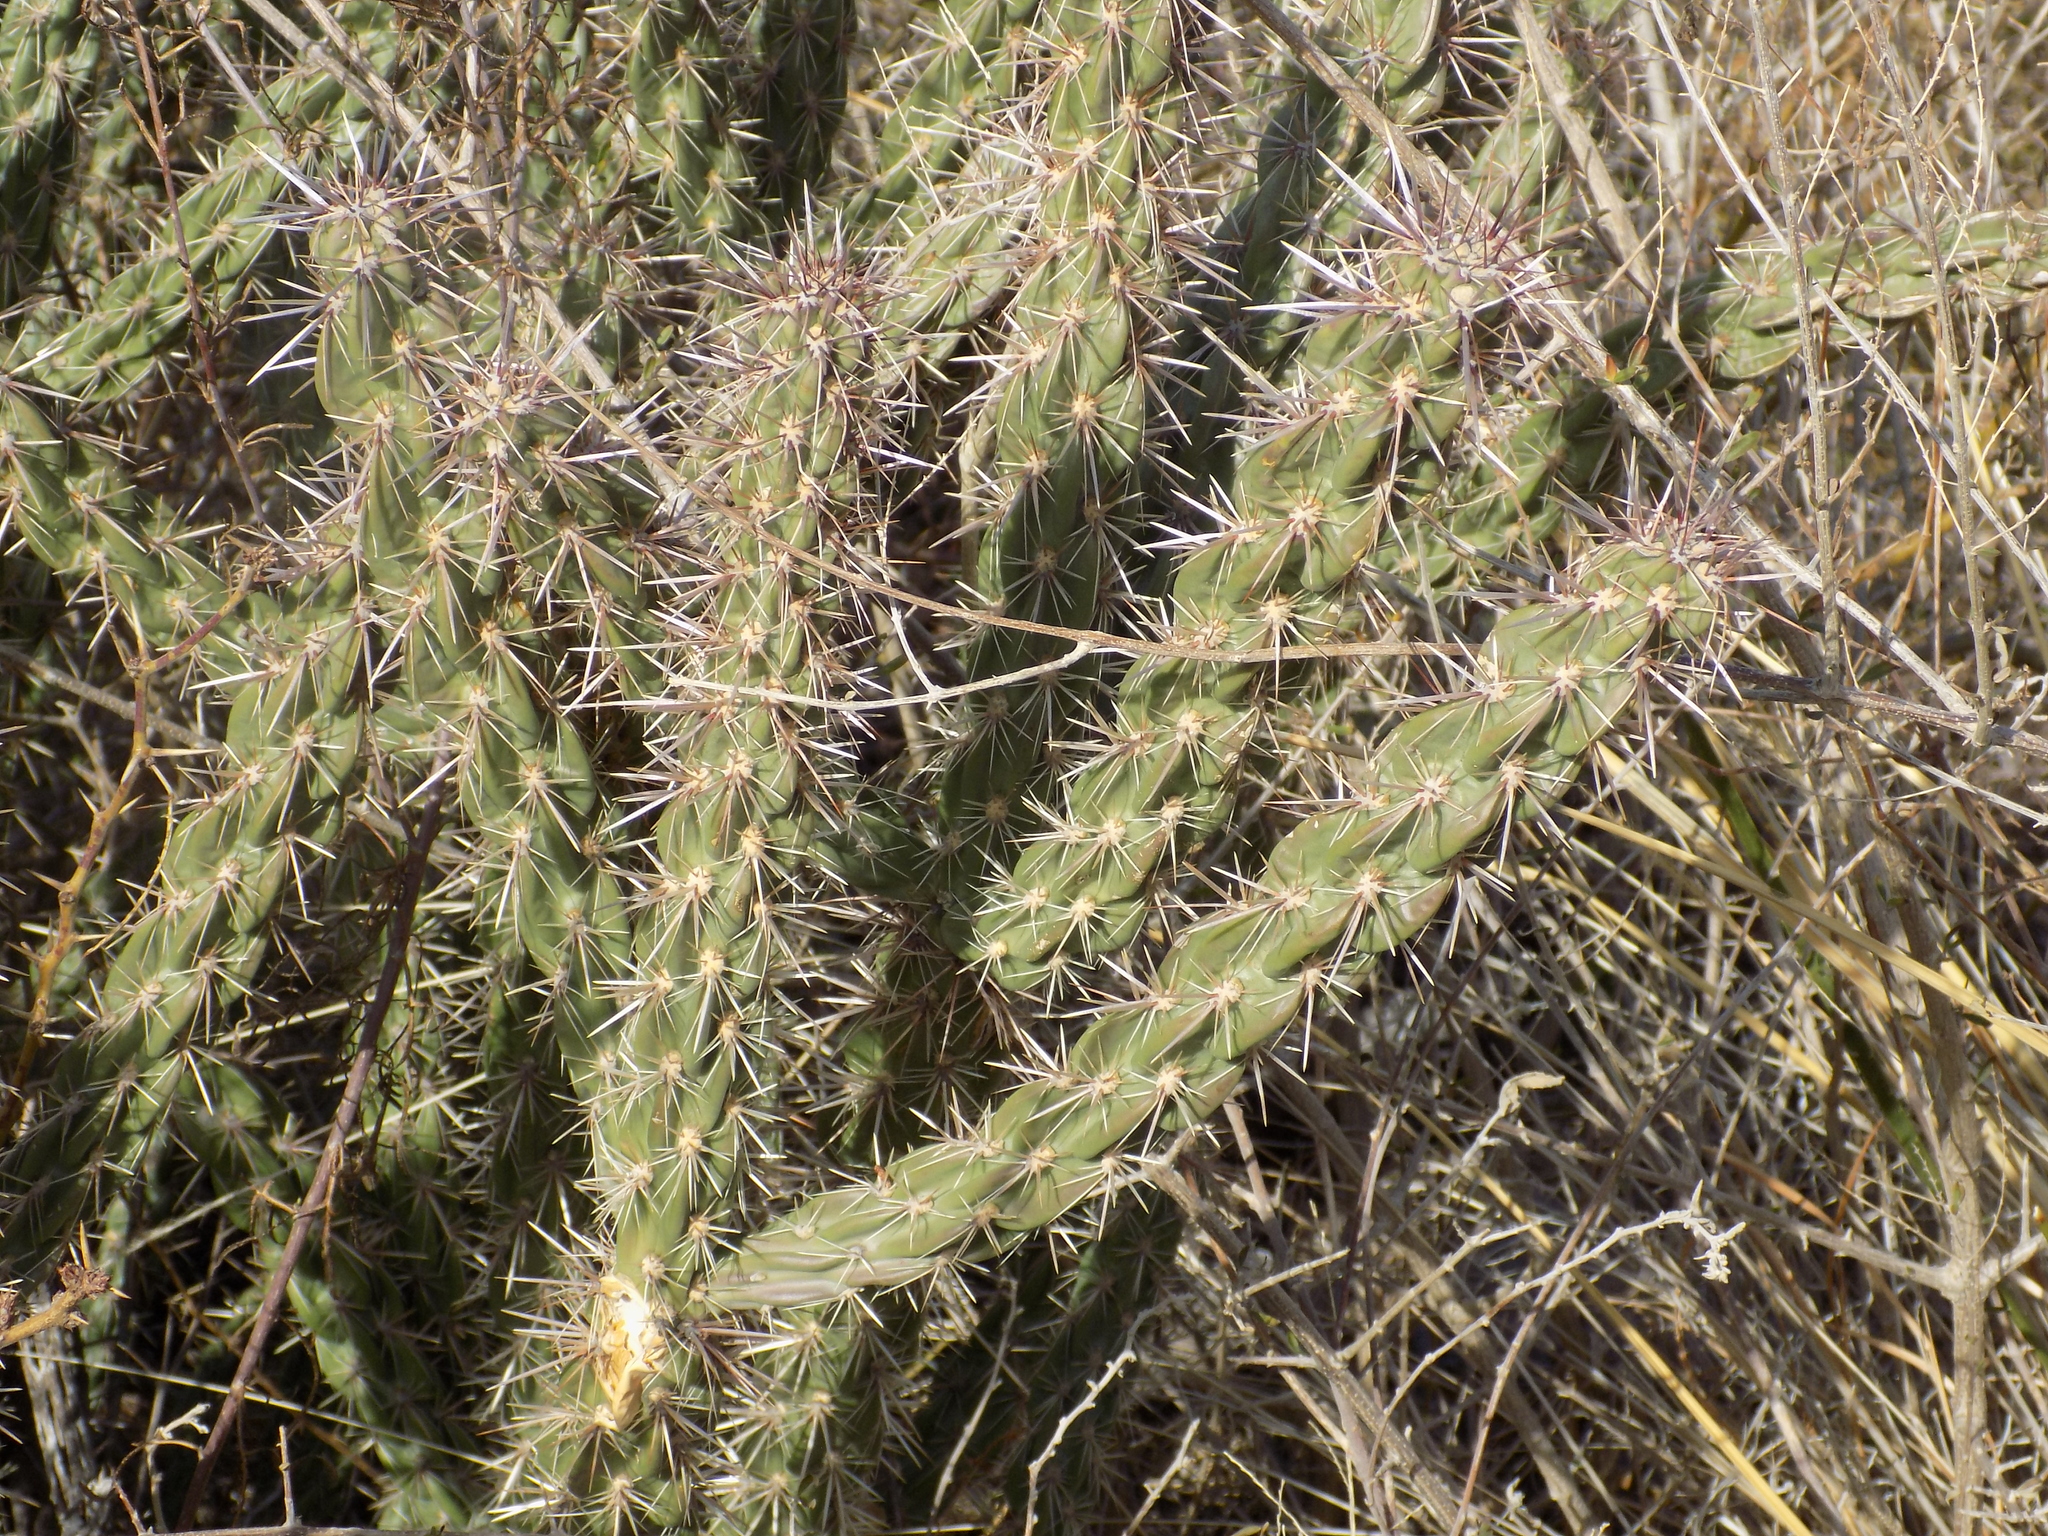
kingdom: Plantae
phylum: Tracheophyta
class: Magnoliopsida
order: Caryophyllales
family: Cactaceae
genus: Cylindropuntia
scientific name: Cylindropuntia imbricata
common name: Candelabrum cactus
